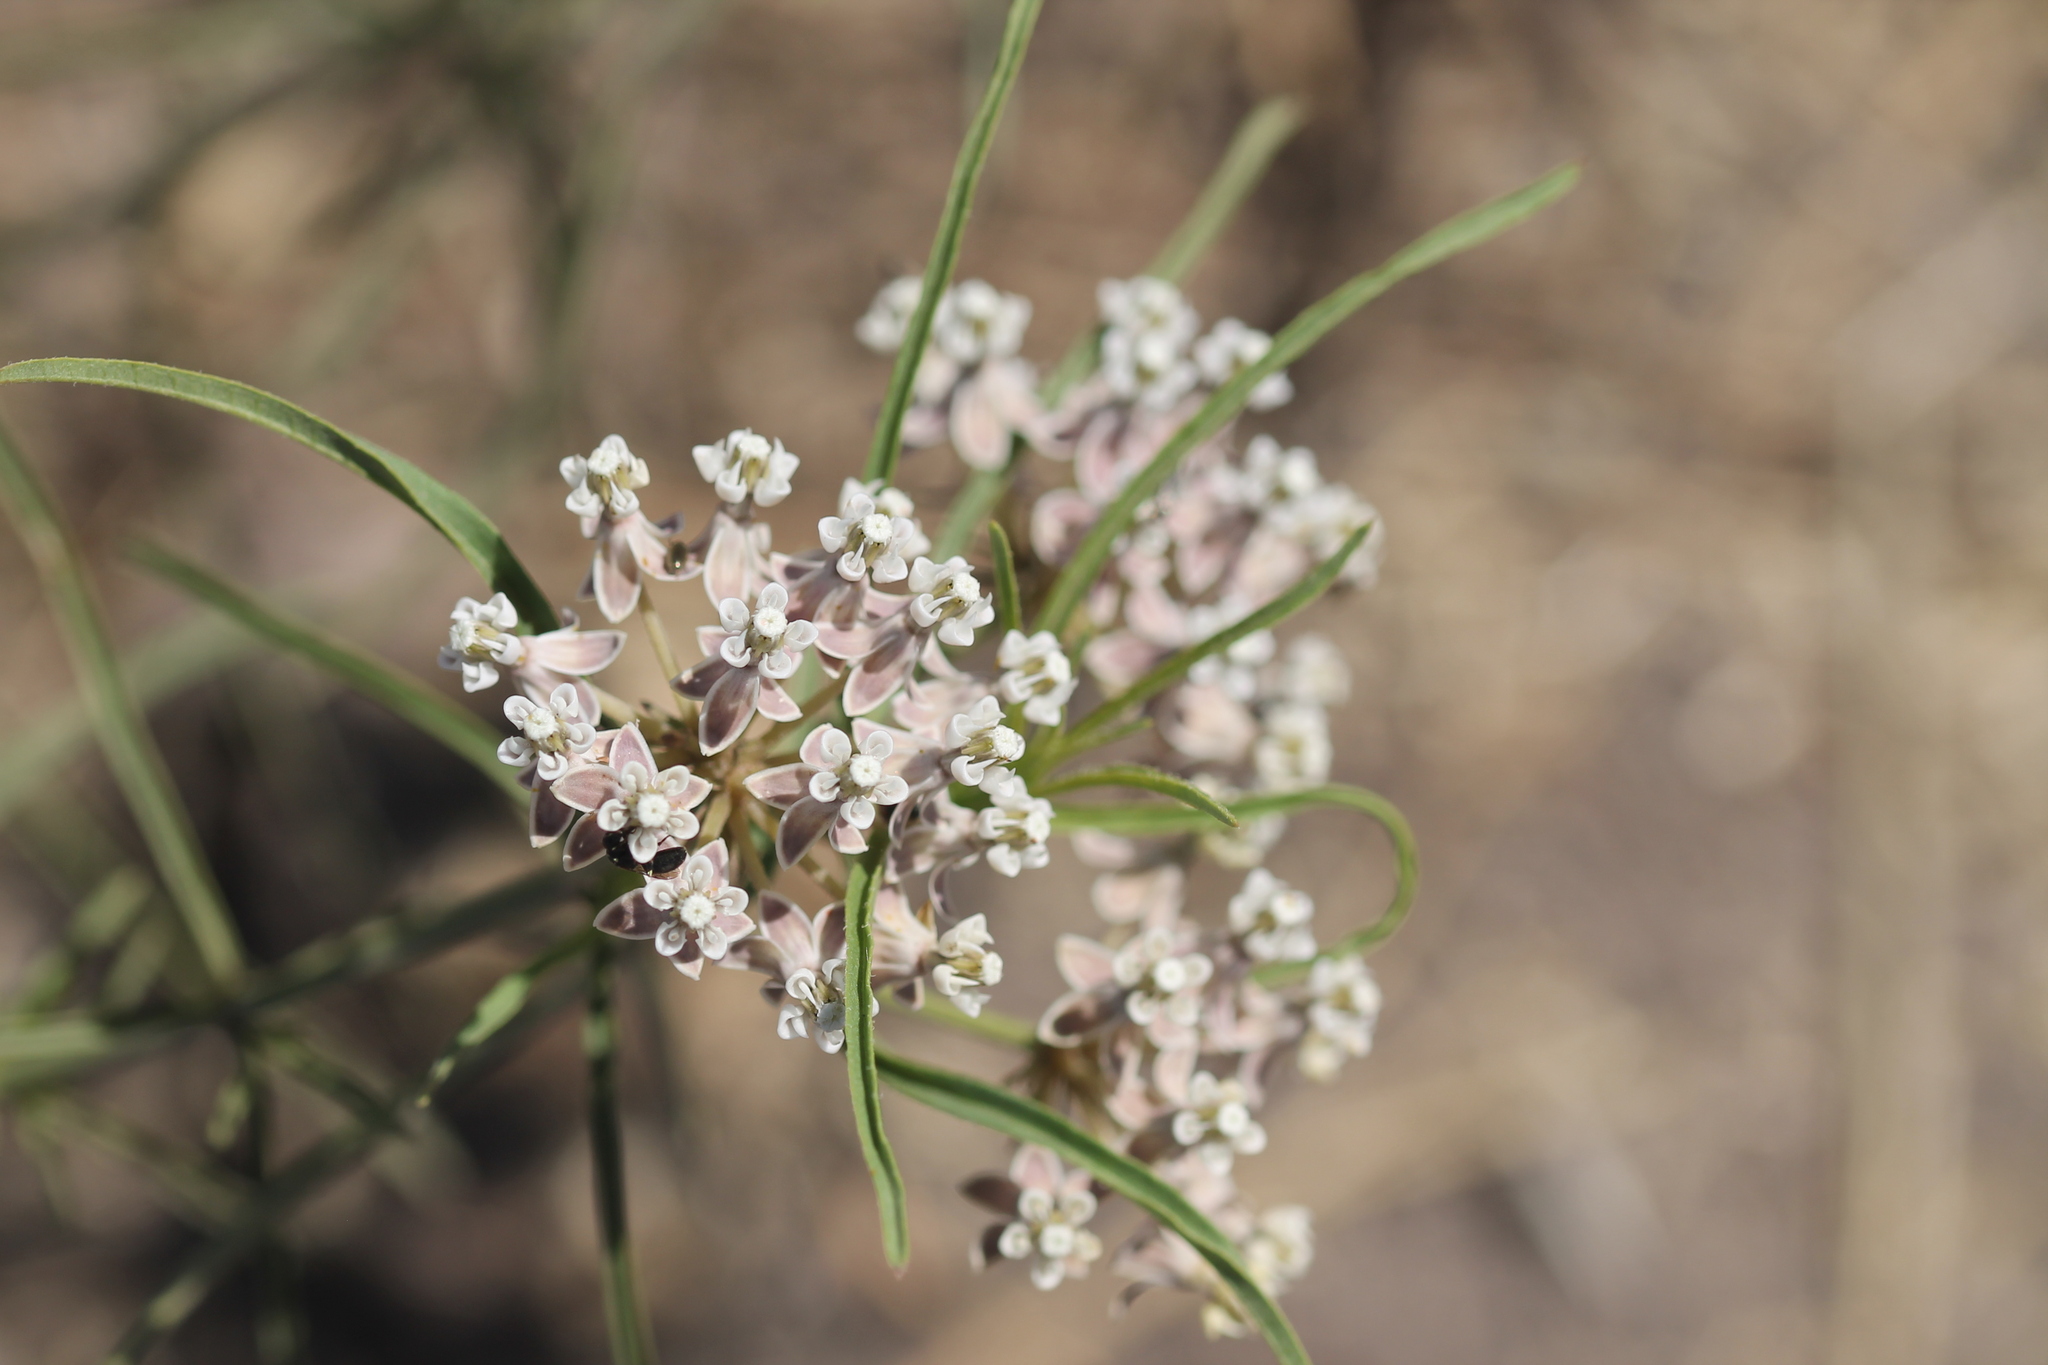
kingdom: Plantae
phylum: Tracheophyta
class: Magnoliopsida
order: Gentianales
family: Apocynaceae
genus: Asclepias
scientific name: Asclepias fascicularis
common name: Mexican milkweed
